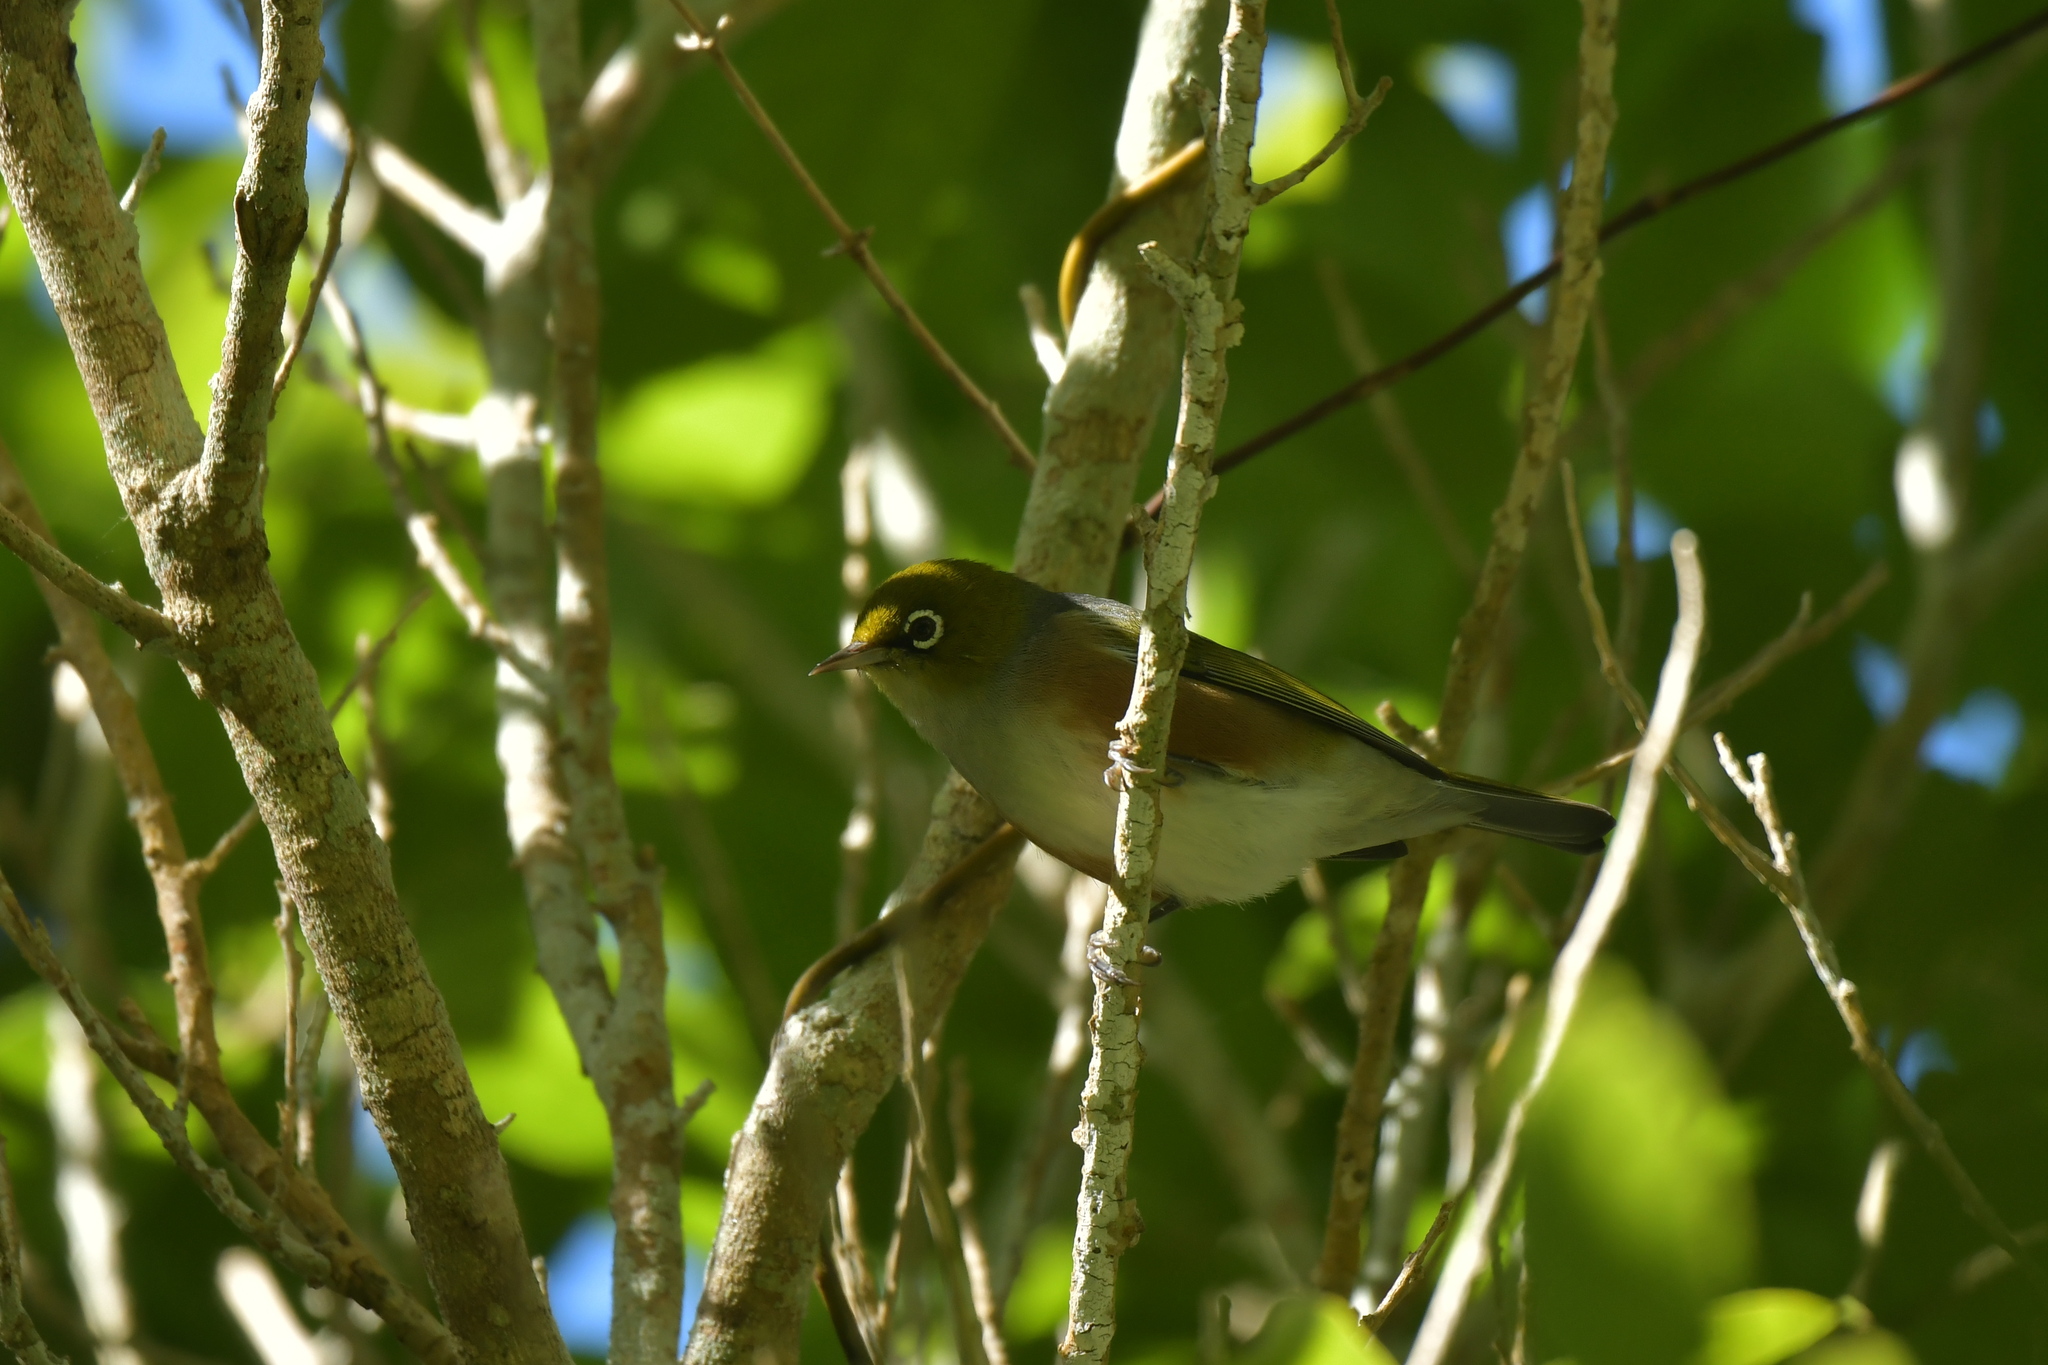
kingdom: Animalia
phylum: Chordata
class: Aves
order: Passeriformes
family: Zosteropidae
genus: Zosterops
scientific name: Zosterops lateralis
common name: Silvereye
